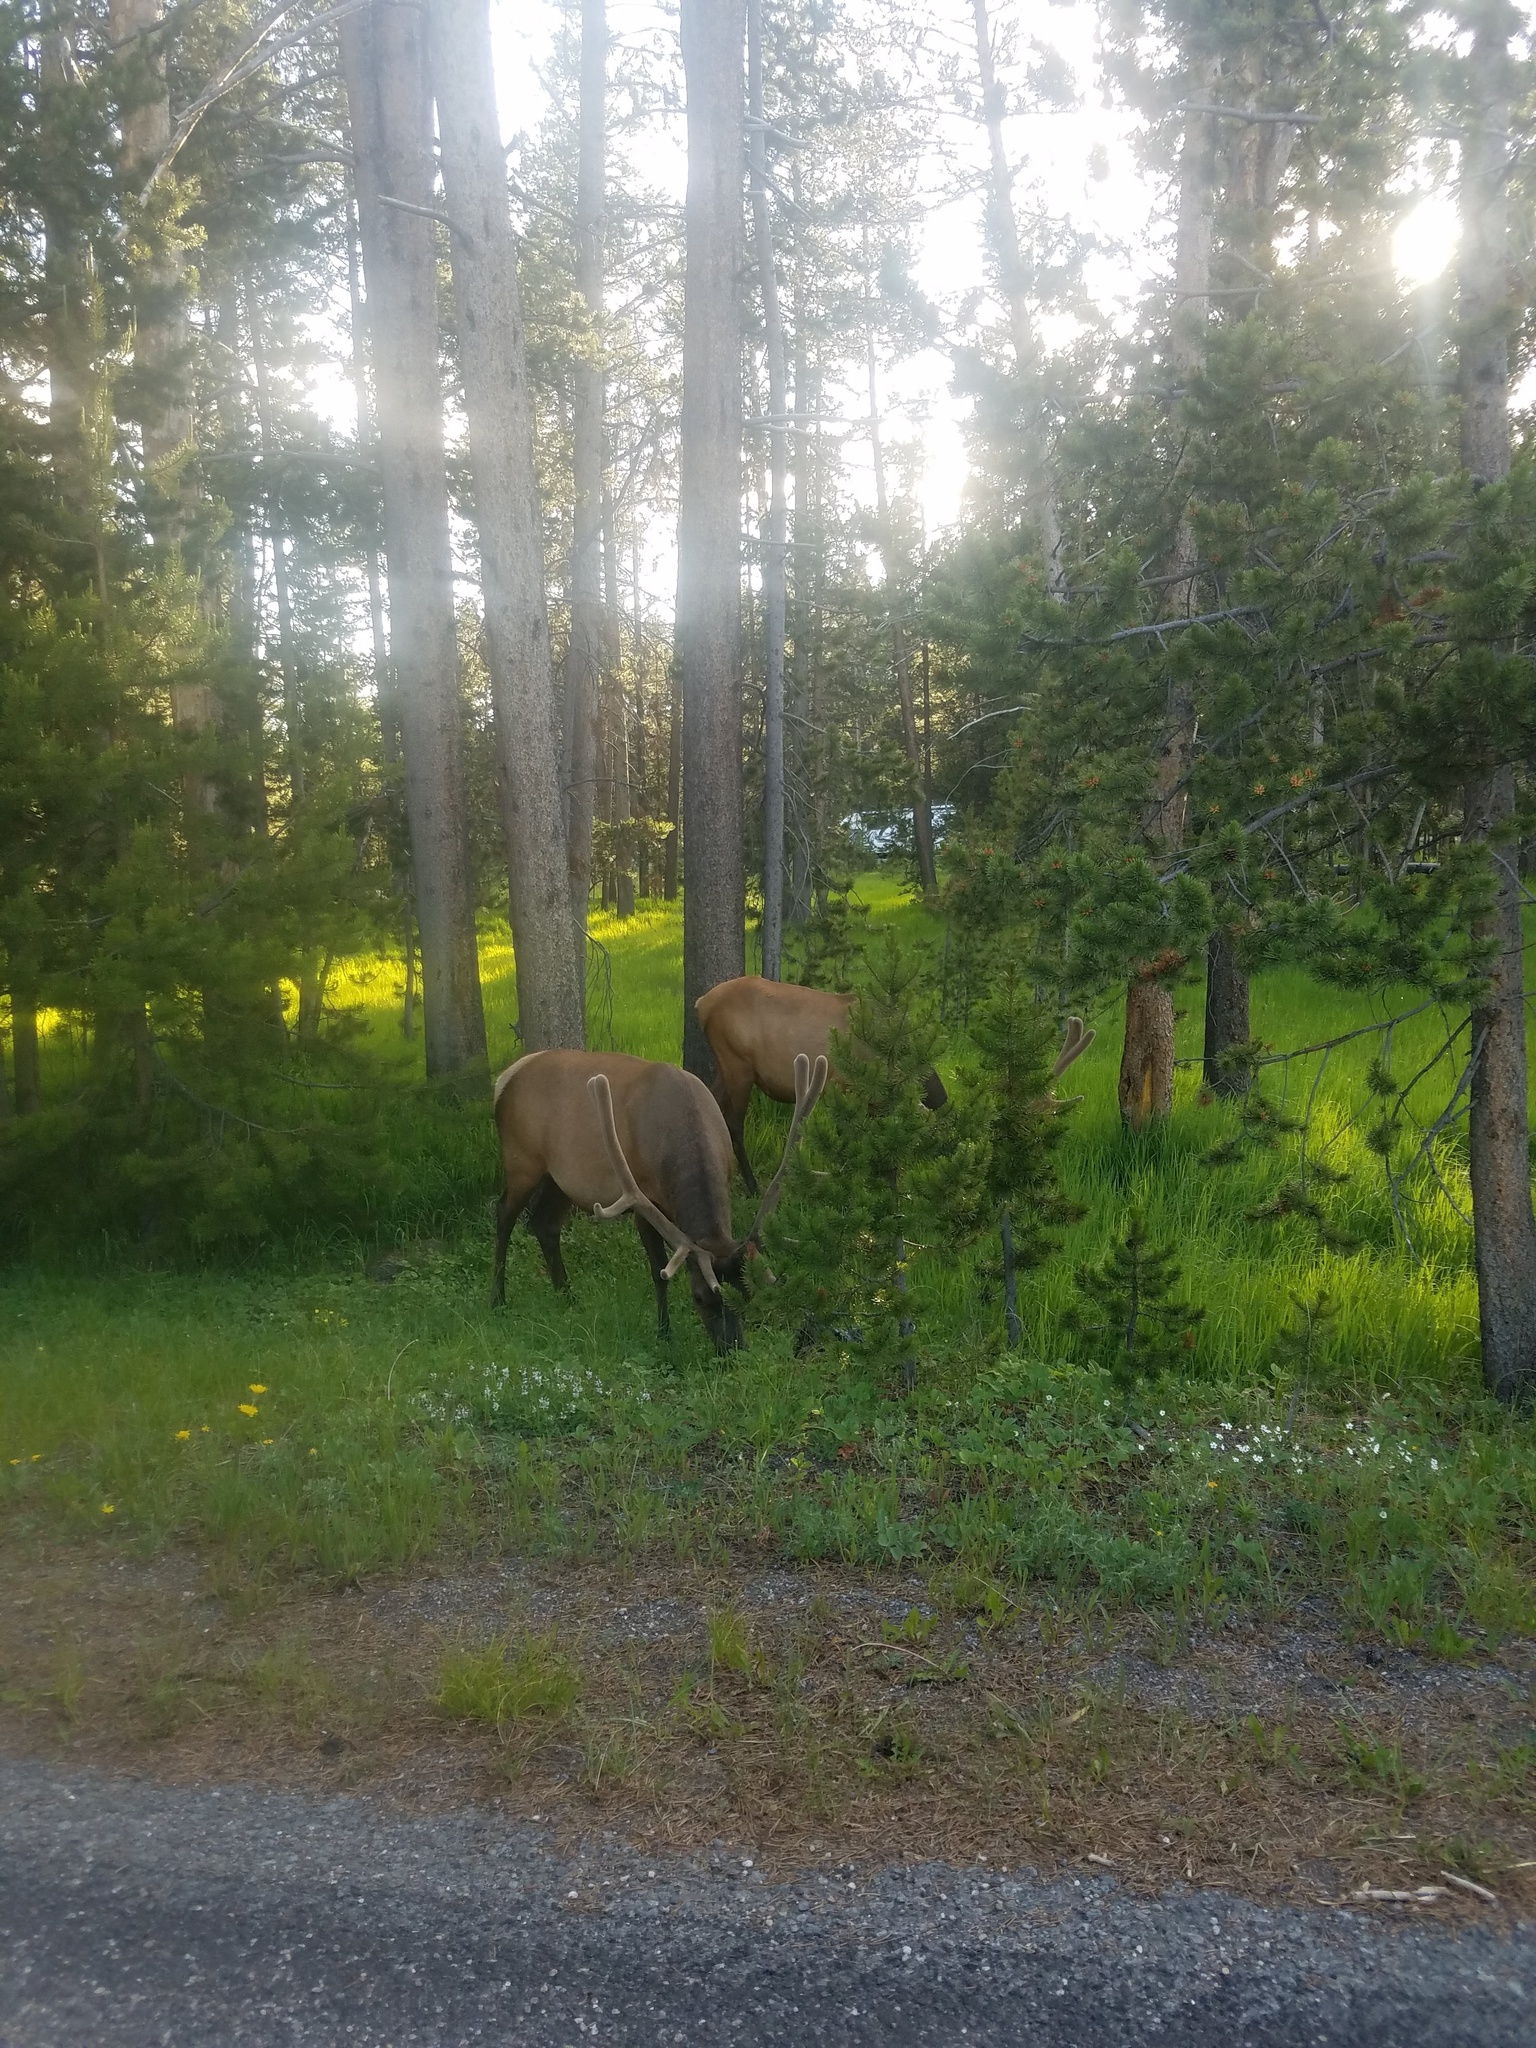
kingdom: Animalia
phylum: Chordata
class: Mammalia
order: Artiodactyla
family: Cervidae
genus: Cervus
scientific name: Cervus elaphus
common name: Red deer
